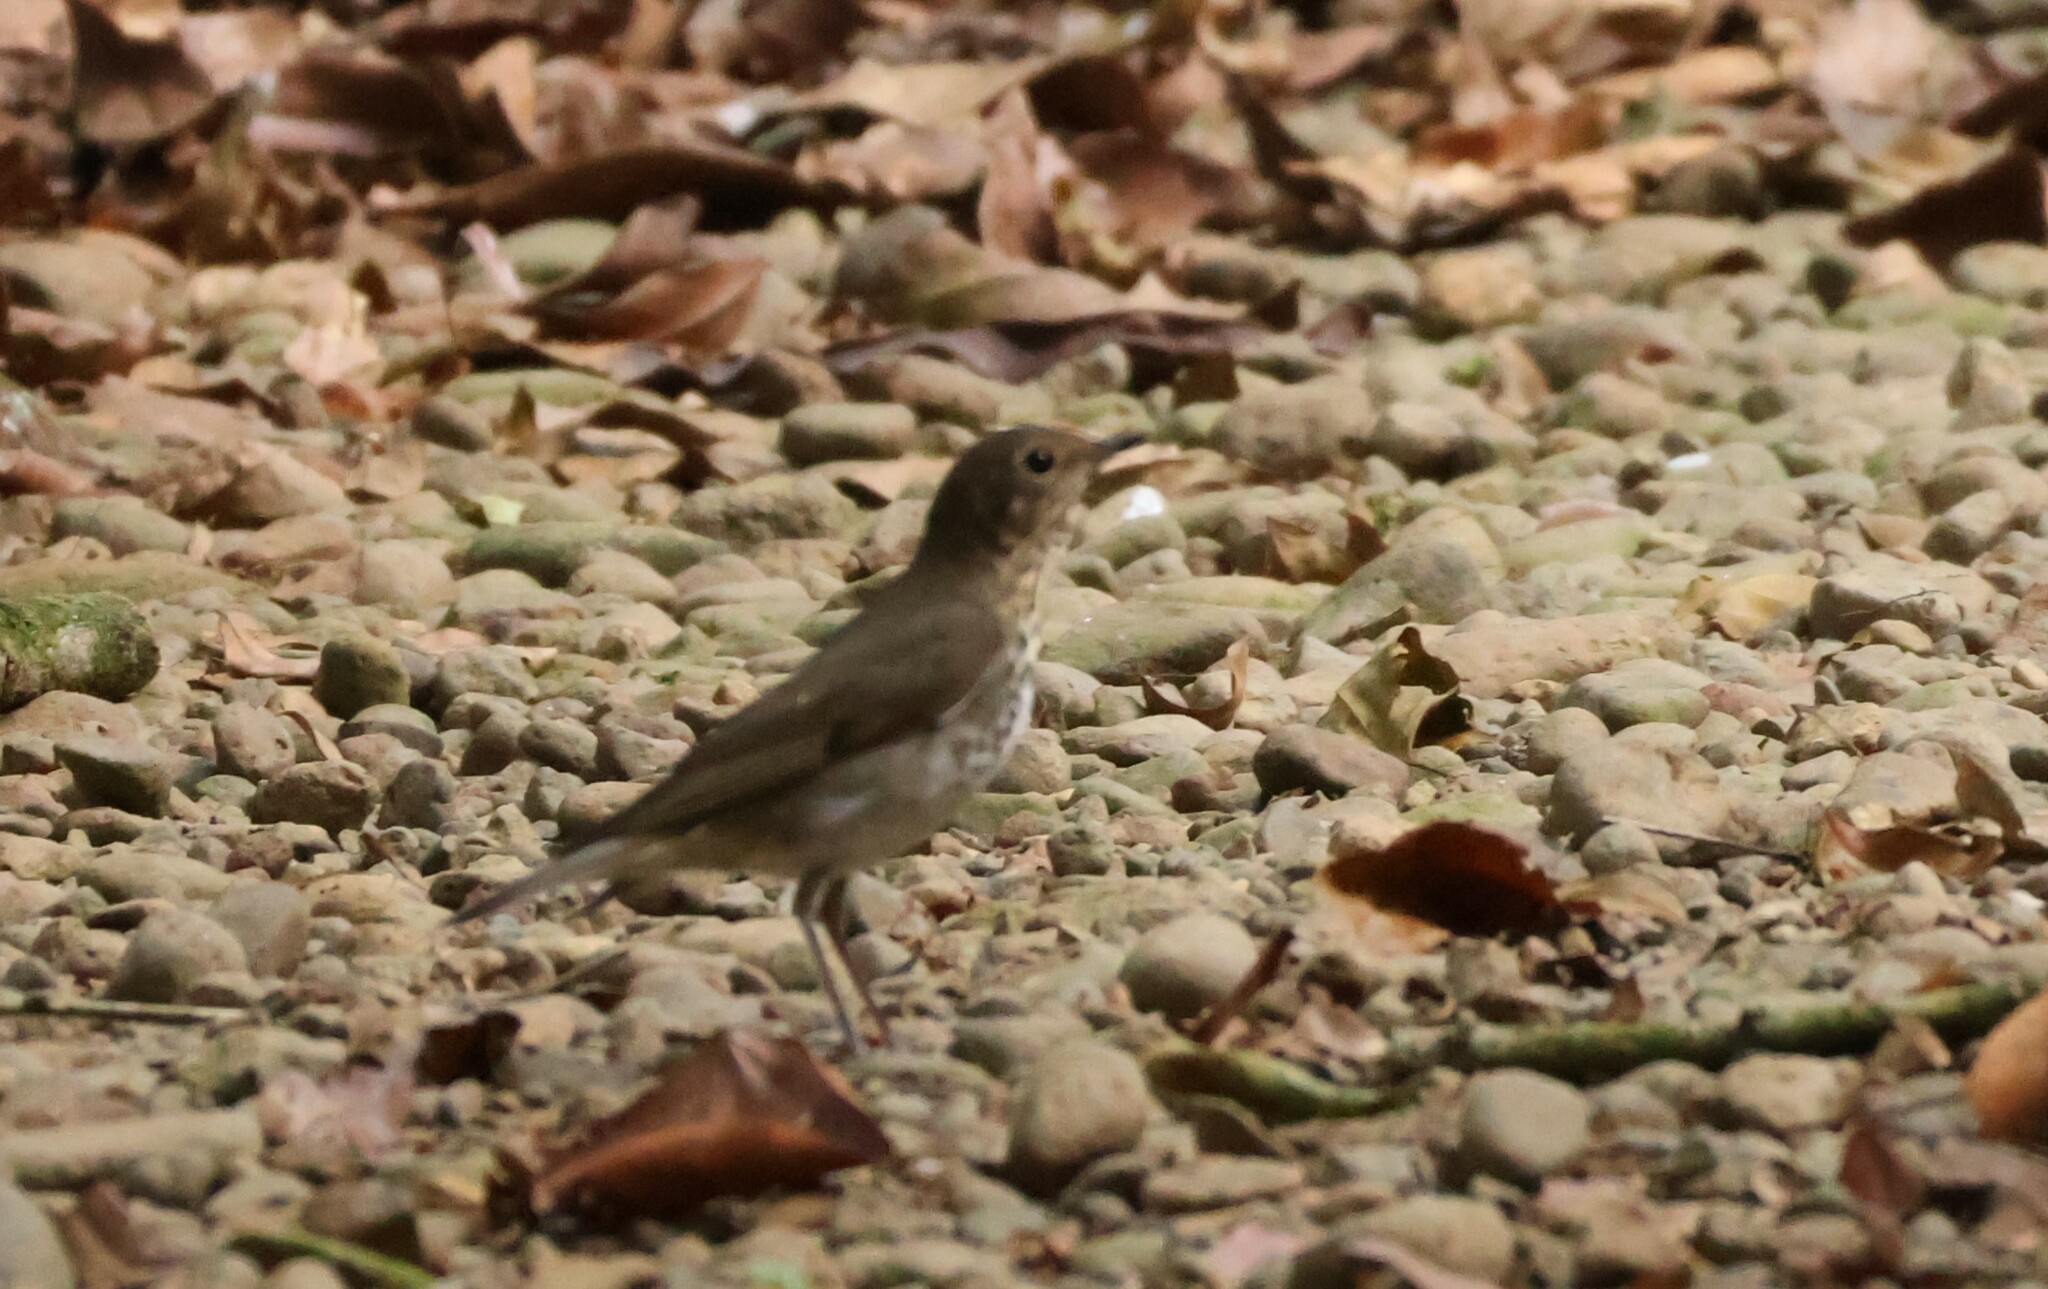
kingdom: Animalia
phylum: Chordata
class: Aves
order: Passeriformes
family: Turdidae
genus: Catharus
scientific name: Catharus ustulatus
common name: Swainson's thrush
